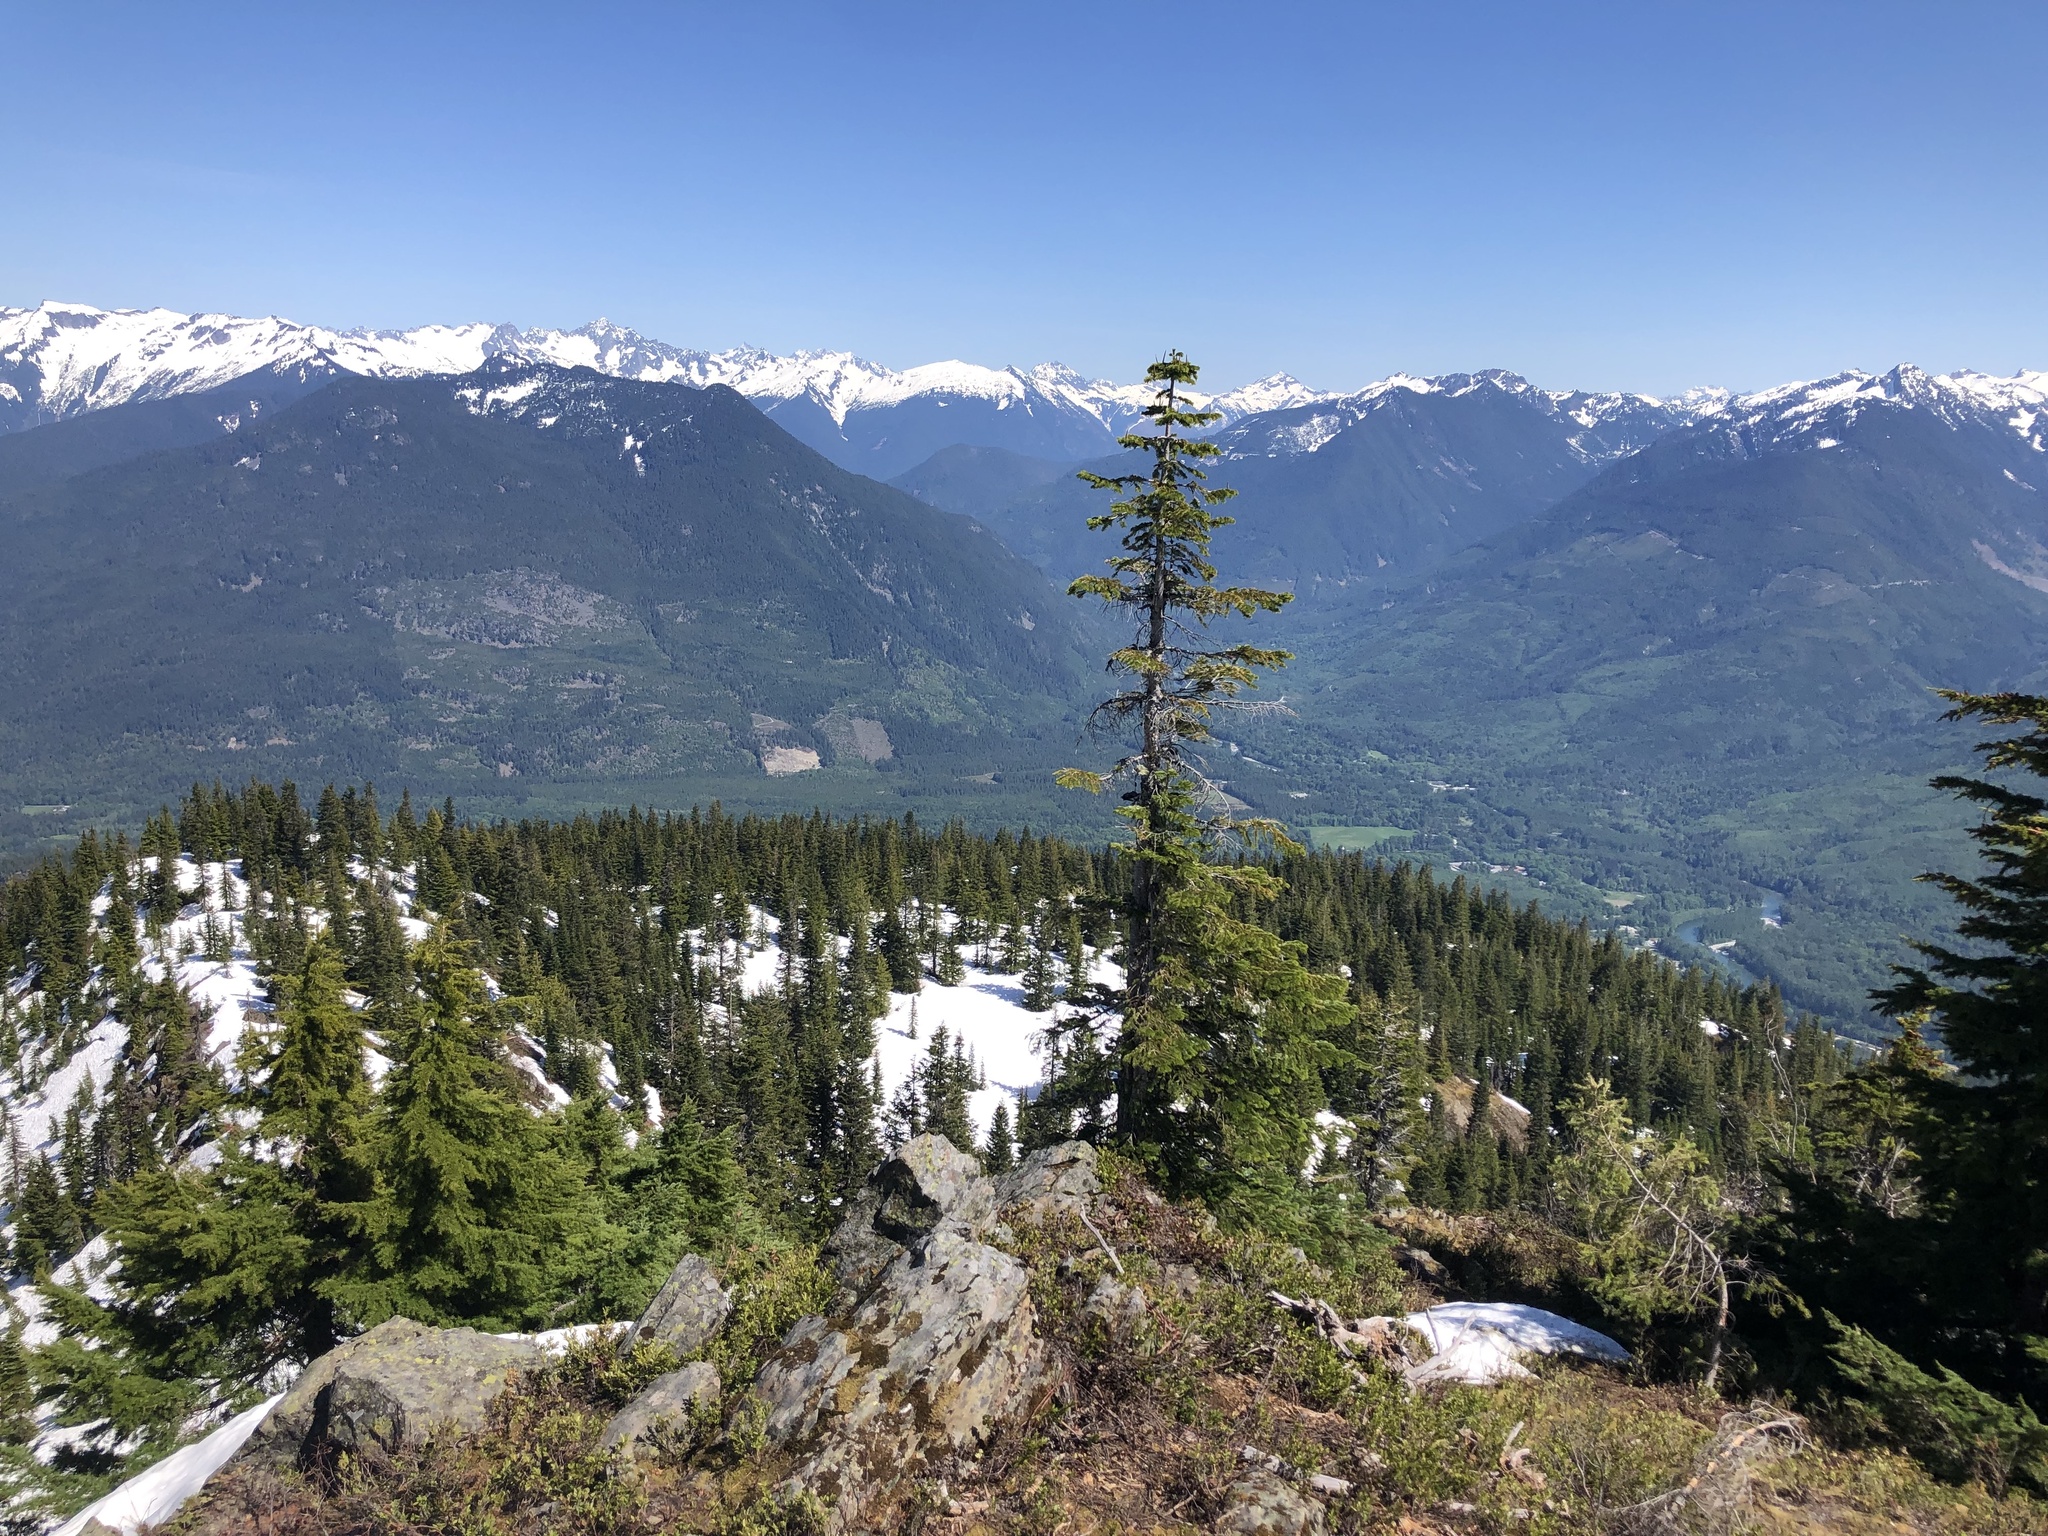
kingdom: Plantae
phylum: Tracheophyta
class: Pinopsida
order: Pinales
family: Pinaceae
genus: Abies
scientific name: Abies amabilis
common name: Pacific silver fir
